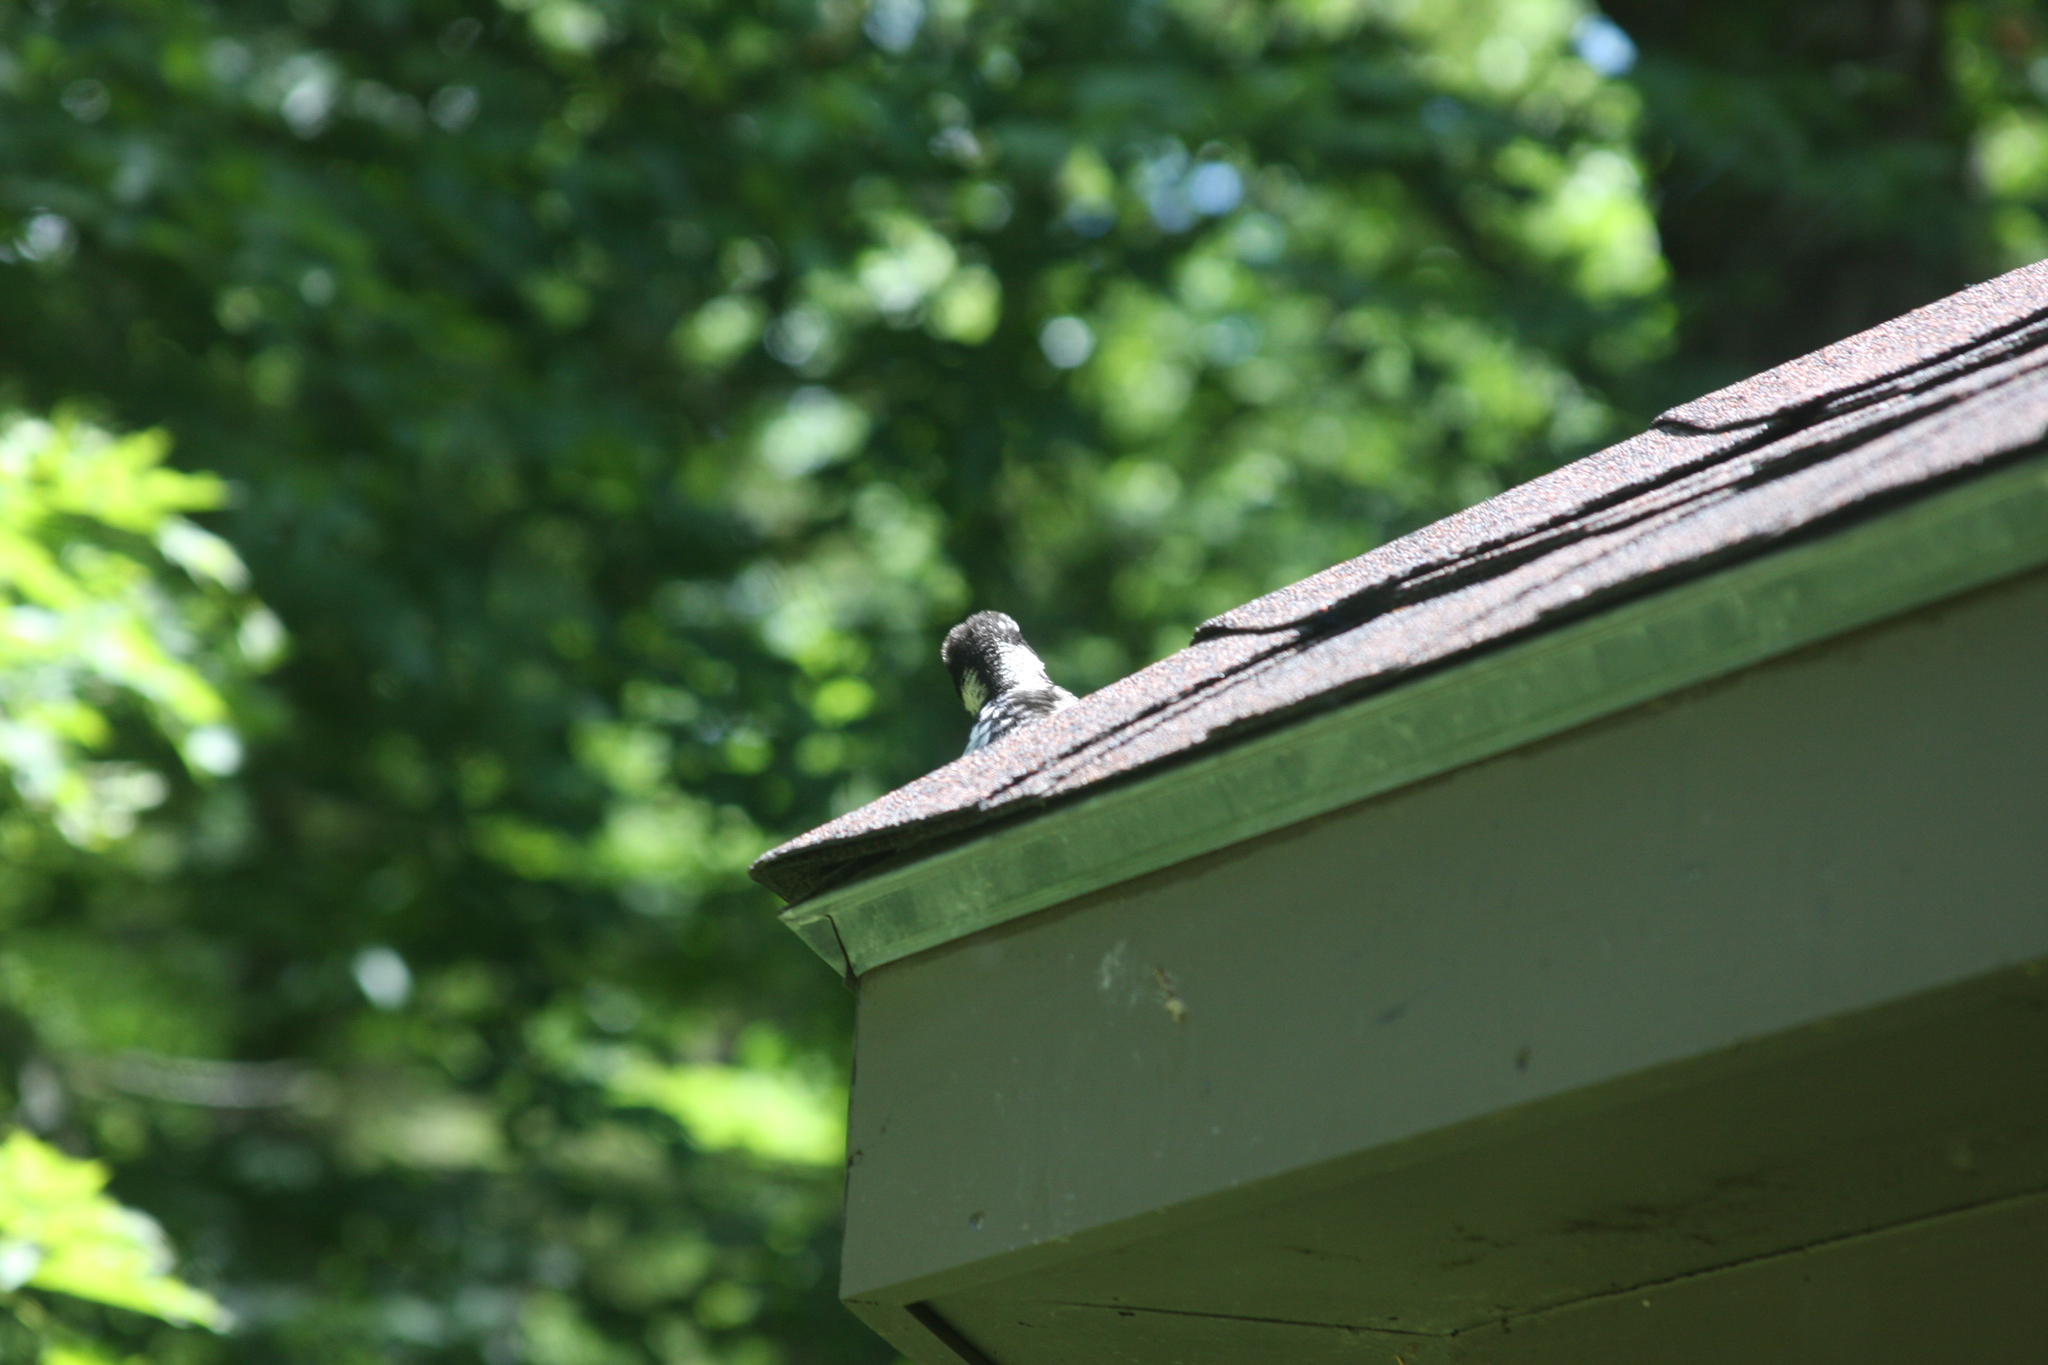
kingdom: Animalia
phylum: Chordata
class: Aves
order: Piciformes
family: Picidae
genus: Leuconotopicus
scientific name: Leuconotopicus villosus
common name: Hairy woodpecker
